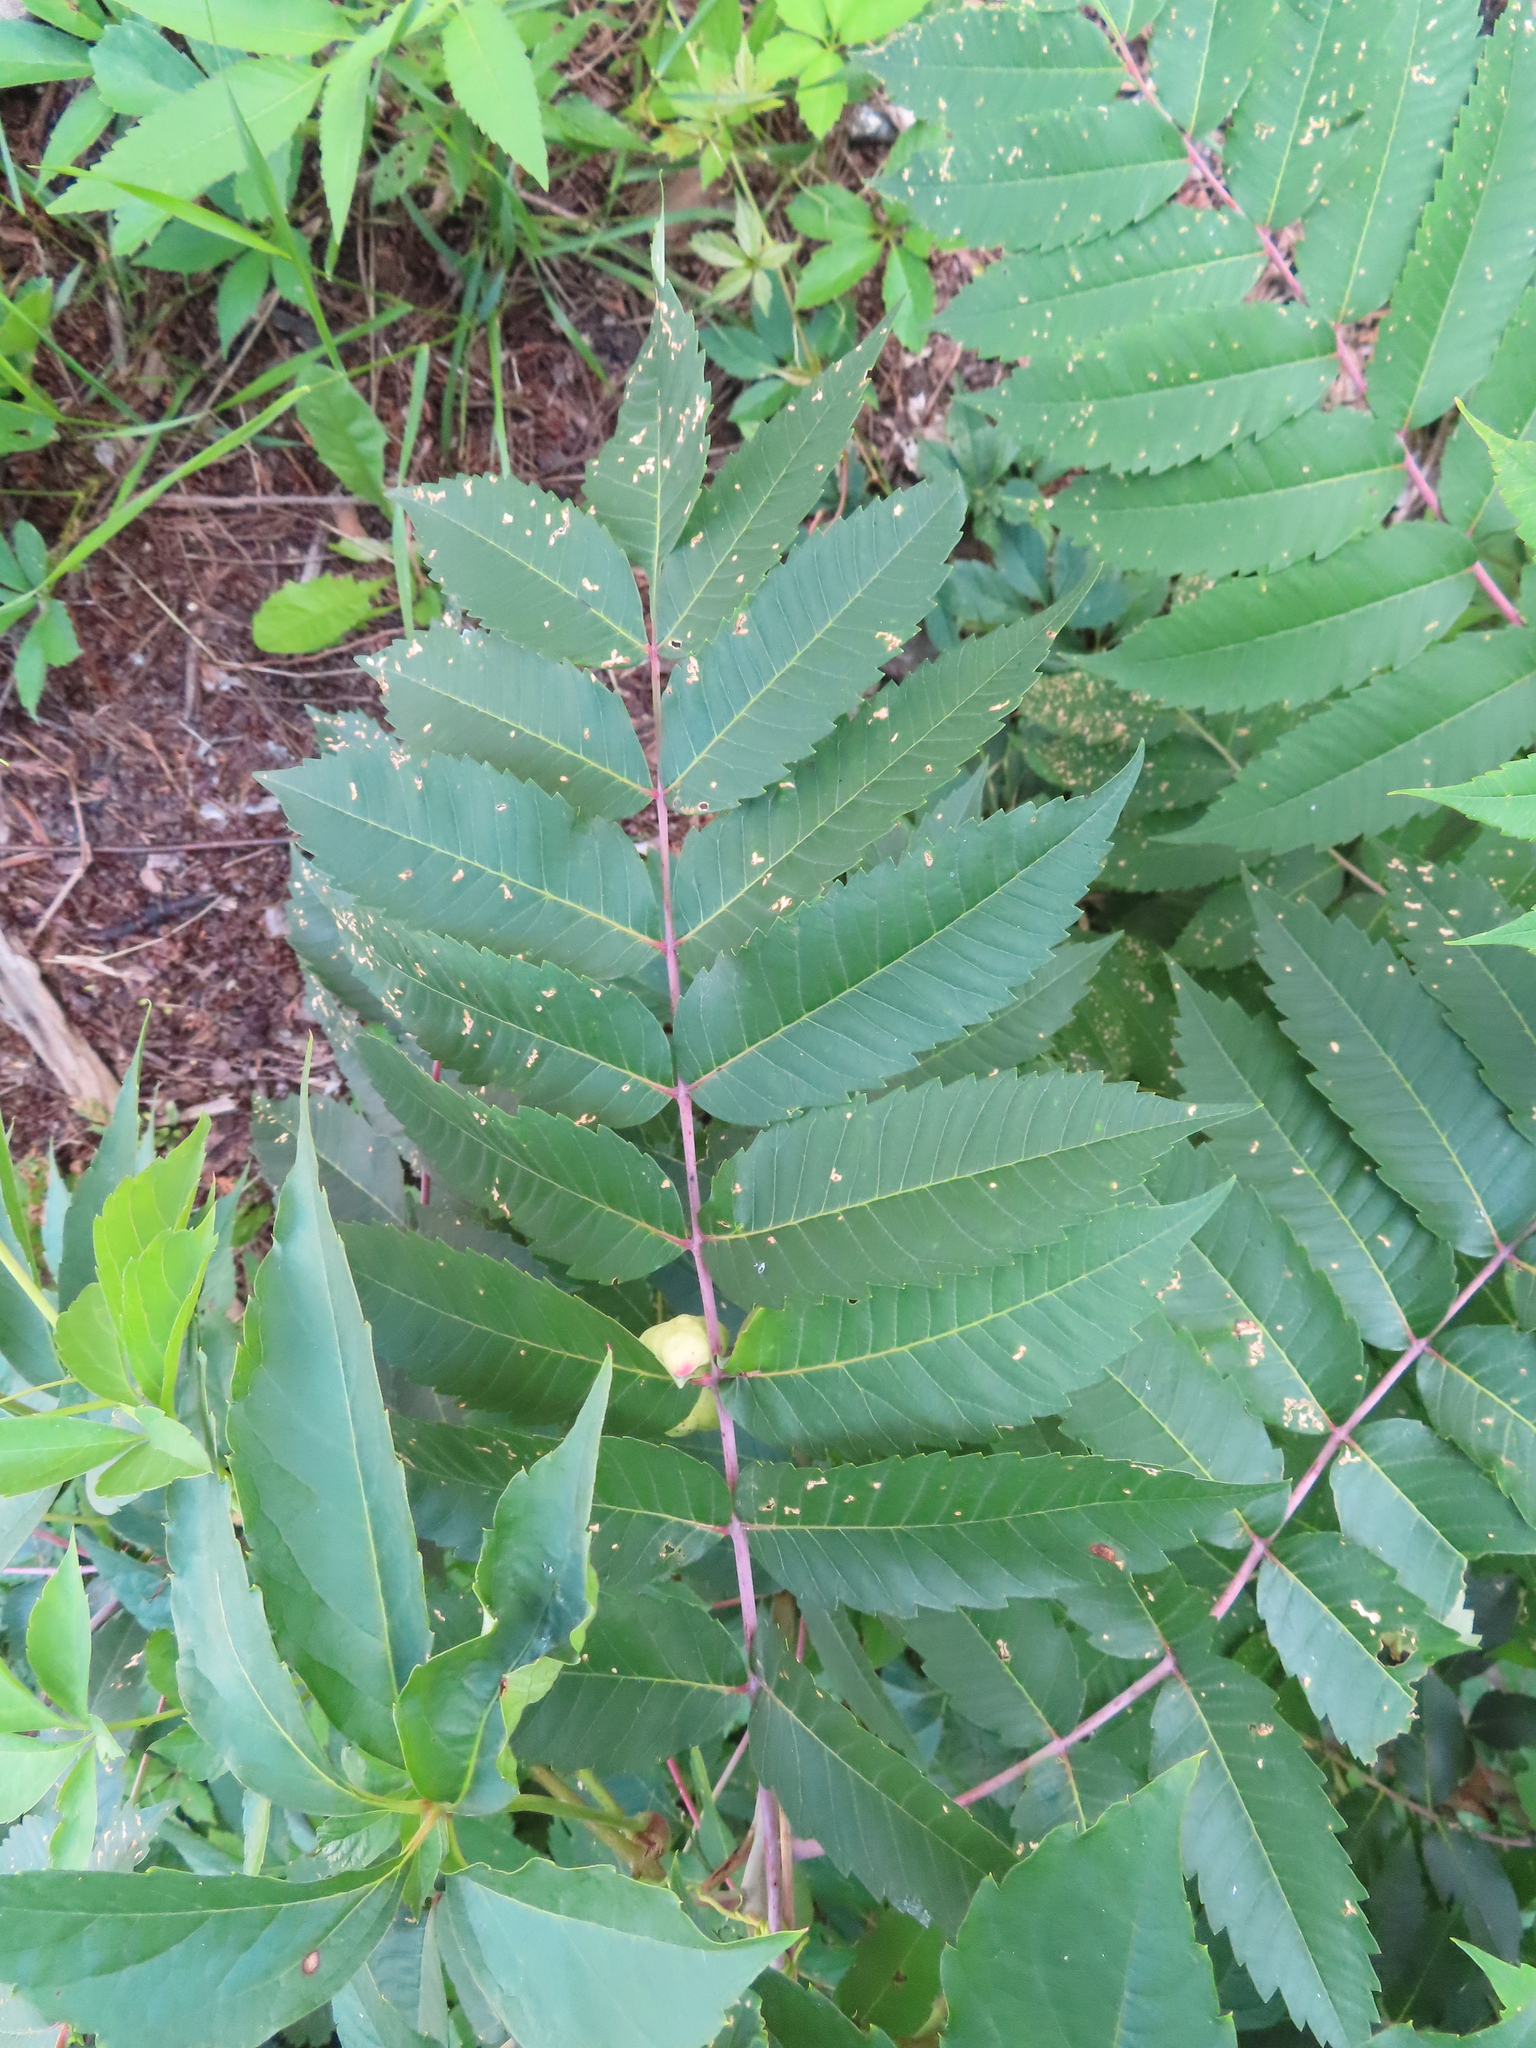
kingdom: Plantae
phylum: Tracheophyta
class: Magnoliopsida
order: Sapindales
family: Anacardiaceae
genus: Rhus
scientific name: Rhus glabra
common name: Scarlet sumac
